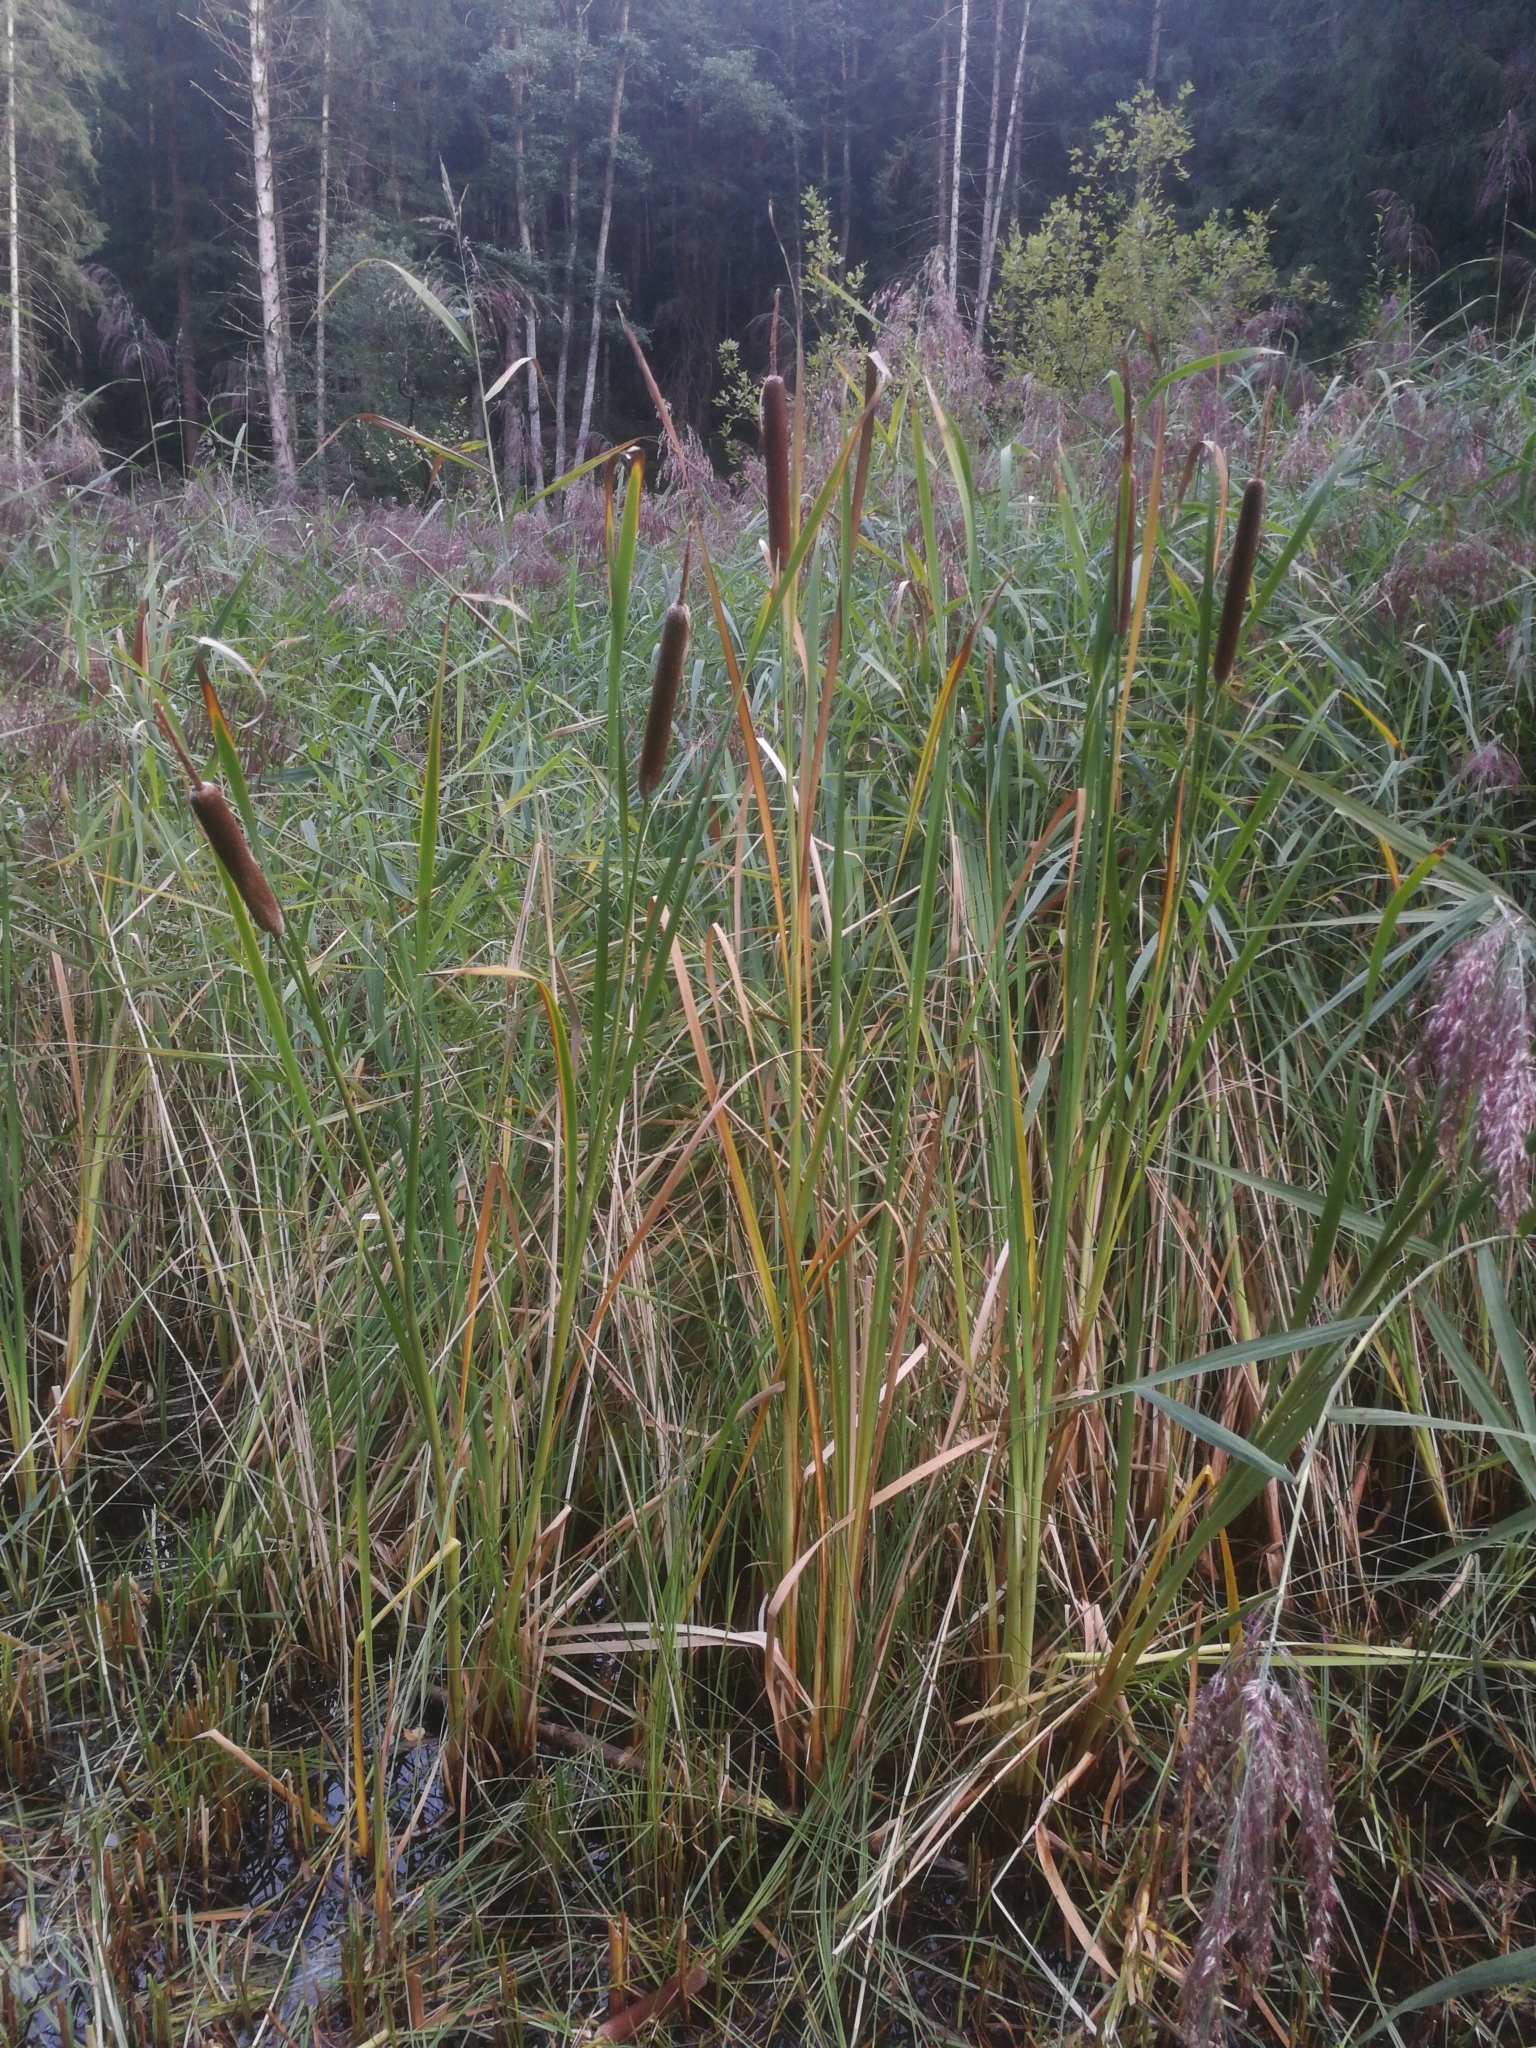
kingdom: Plantae
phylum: Tracheophyta
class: Liliopsida
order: Poales
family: Typhaceae
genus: Typha
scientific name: Typha latifolia
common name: Broadleaf cattail
